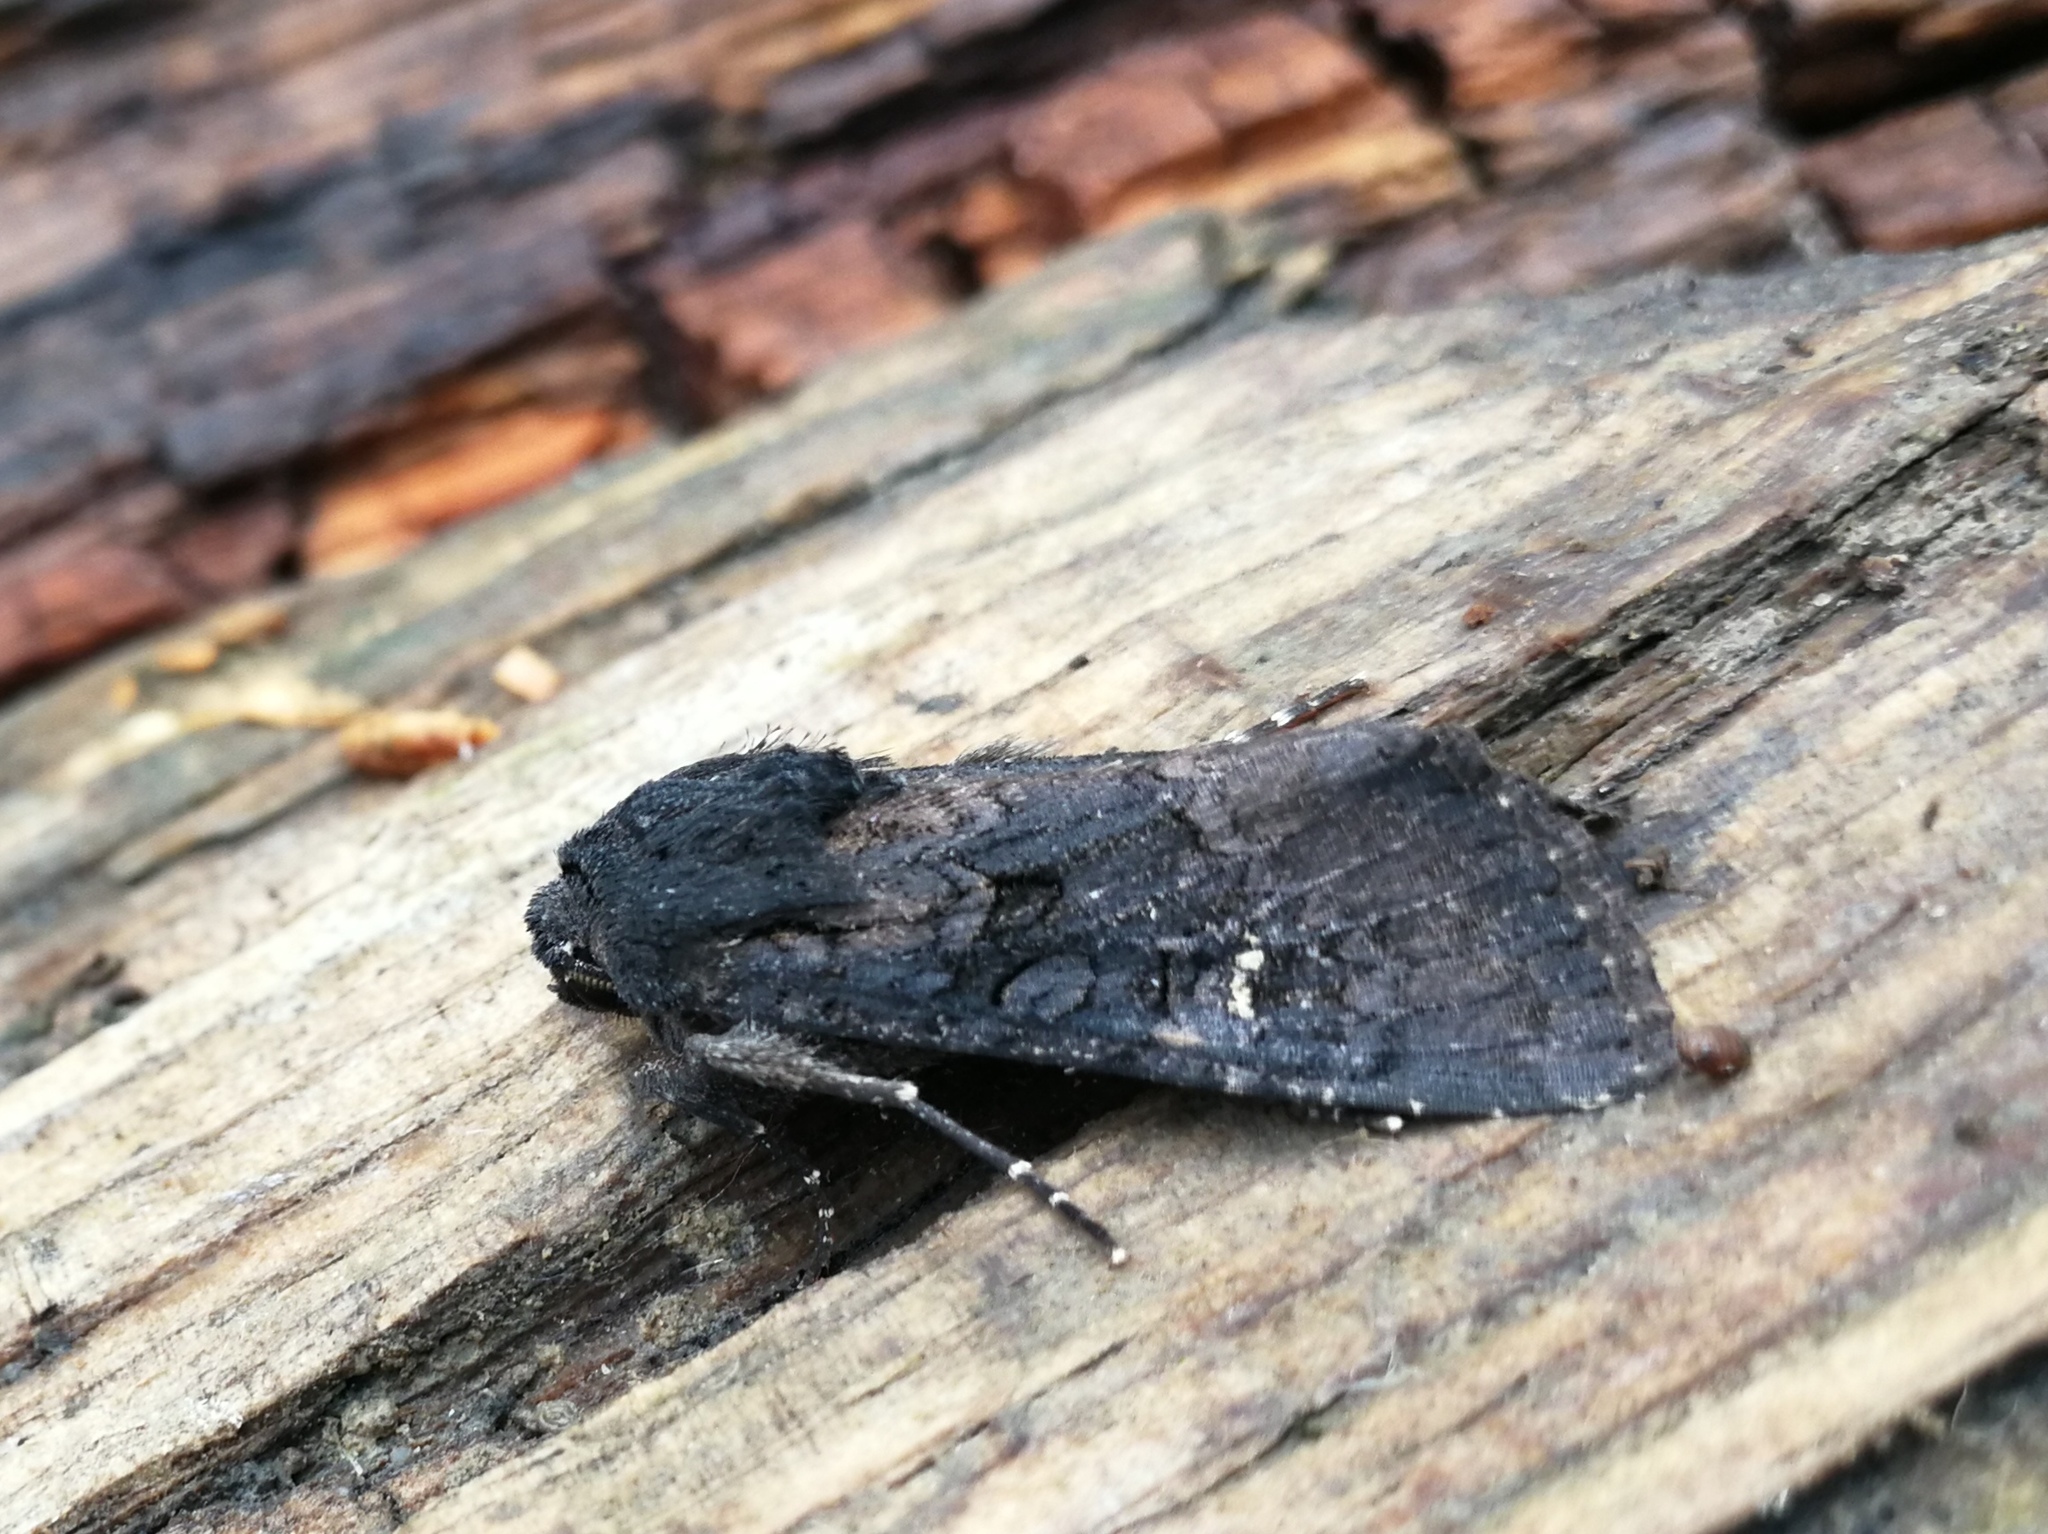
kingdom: Animalia
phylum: Arthropoda
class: Insecta
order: Lepidoptera
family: Noctuidae
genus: Aporophyla
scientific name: Aporophyla nigra
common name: Black rustic
